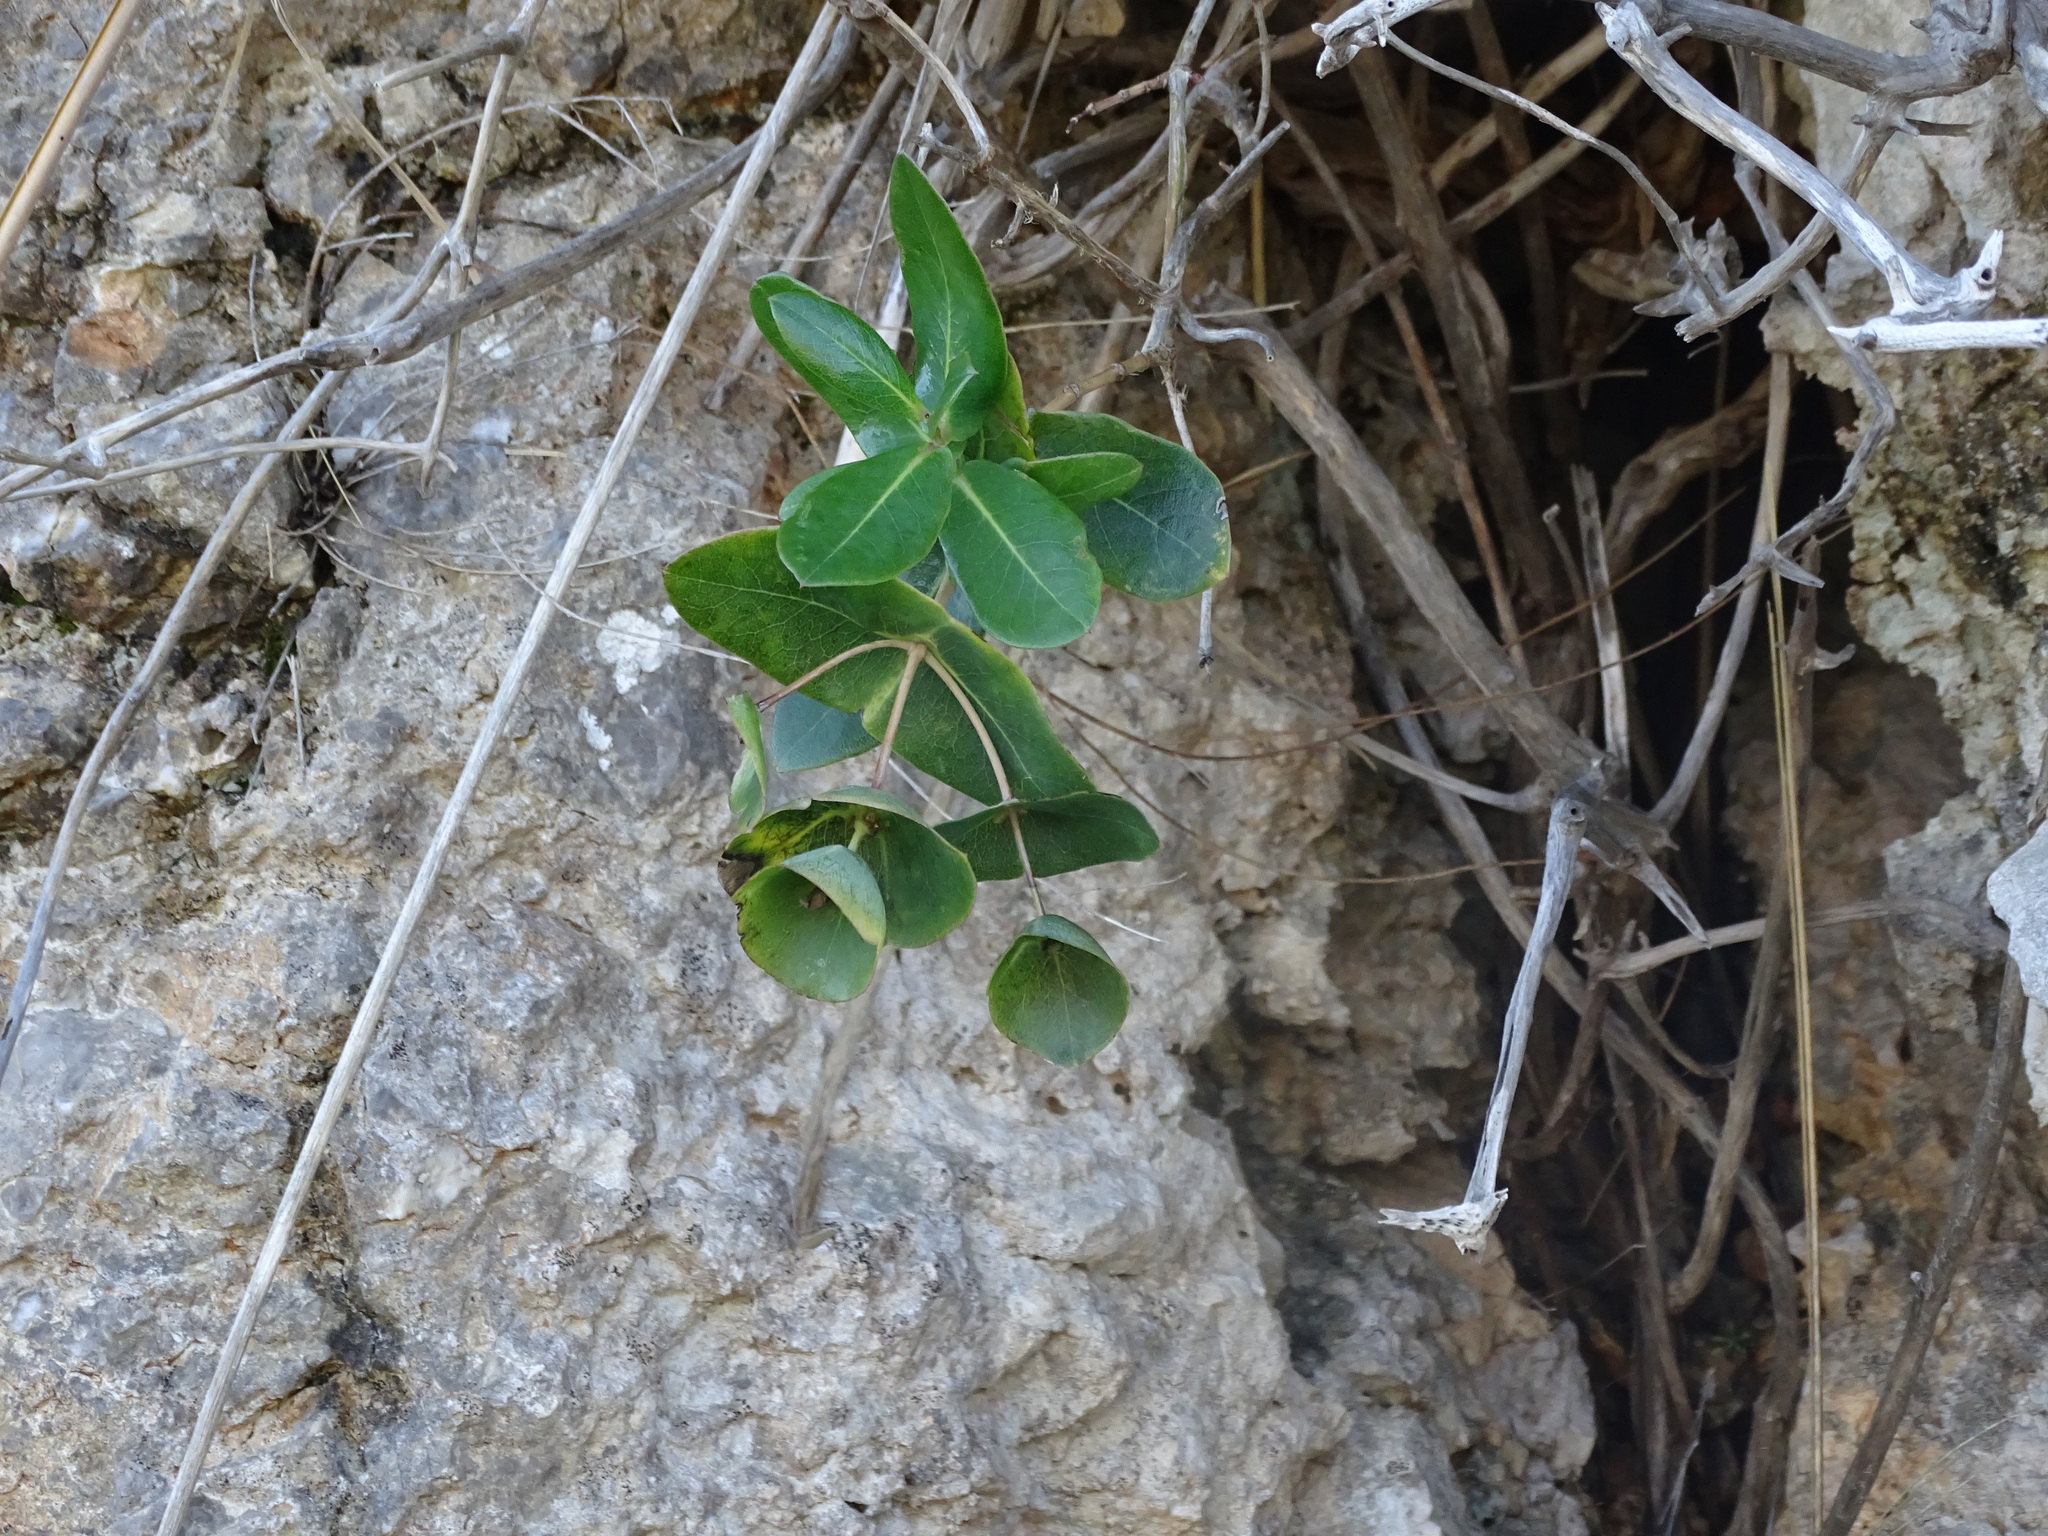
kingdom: Plantae
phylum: Tracheophyta
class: Magnoliopsida
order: Dipsacales
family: Caprifoliaceae
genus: Lonicera
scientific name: Lonicera implexa
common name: Minorca honeysuckle
